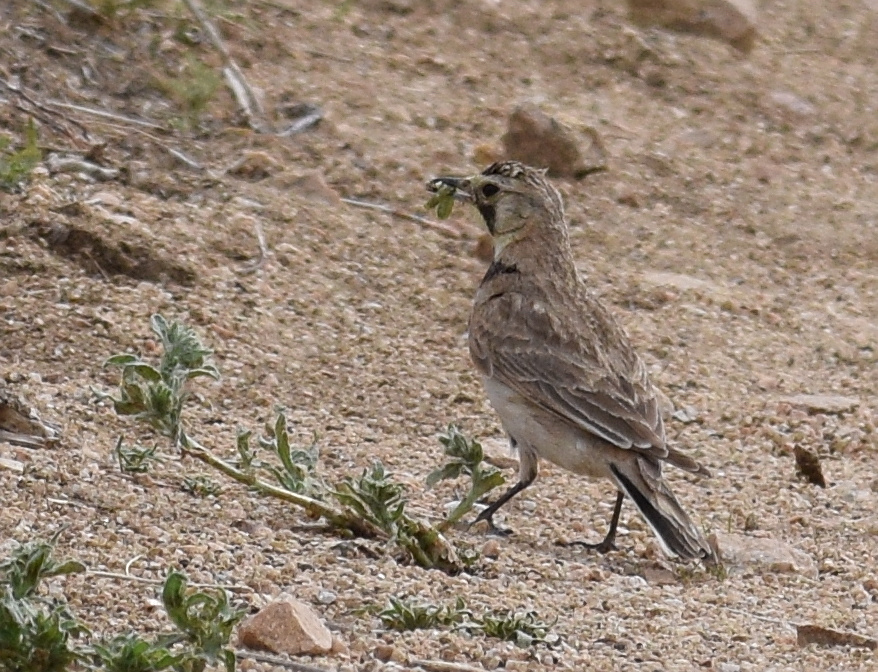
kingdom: Animalia
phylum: Chordata
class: Aves
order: Passeriformes
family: Alaudidae
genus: Eremophila
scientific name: Eremophila alpestris
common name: Horned lark
